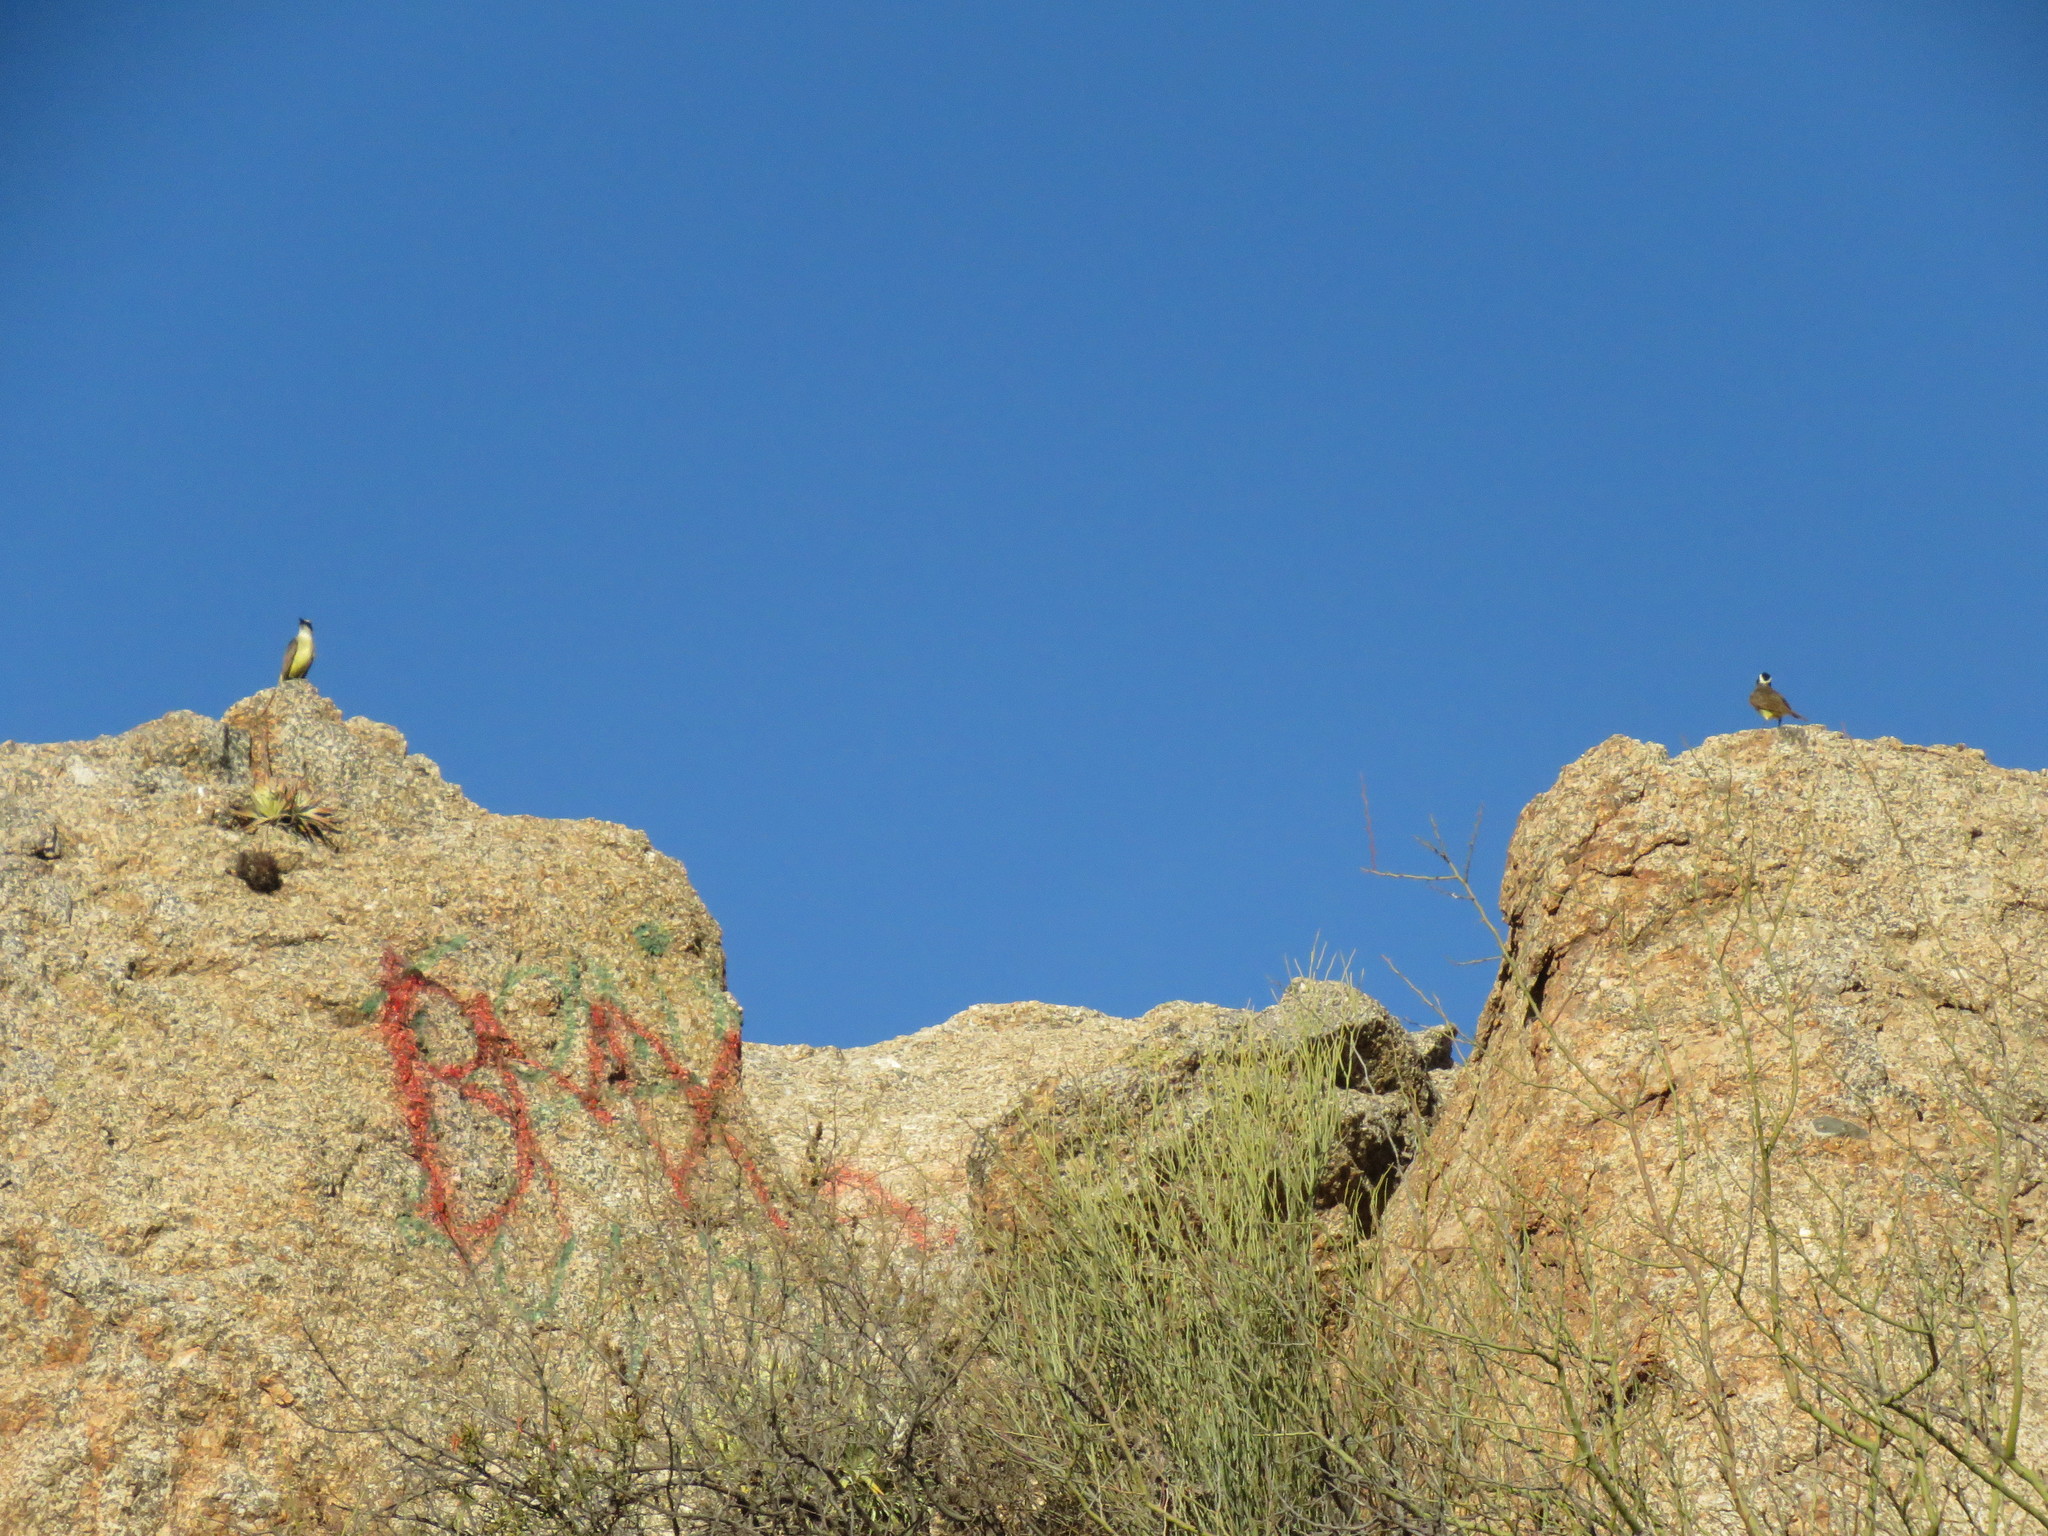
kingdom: Animalia
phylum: Chordata
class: Aves
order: Passeriformes
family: Tyrannidae
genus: Pitangus
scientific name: Pitangus sulphuratus
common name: Great kiskadee
